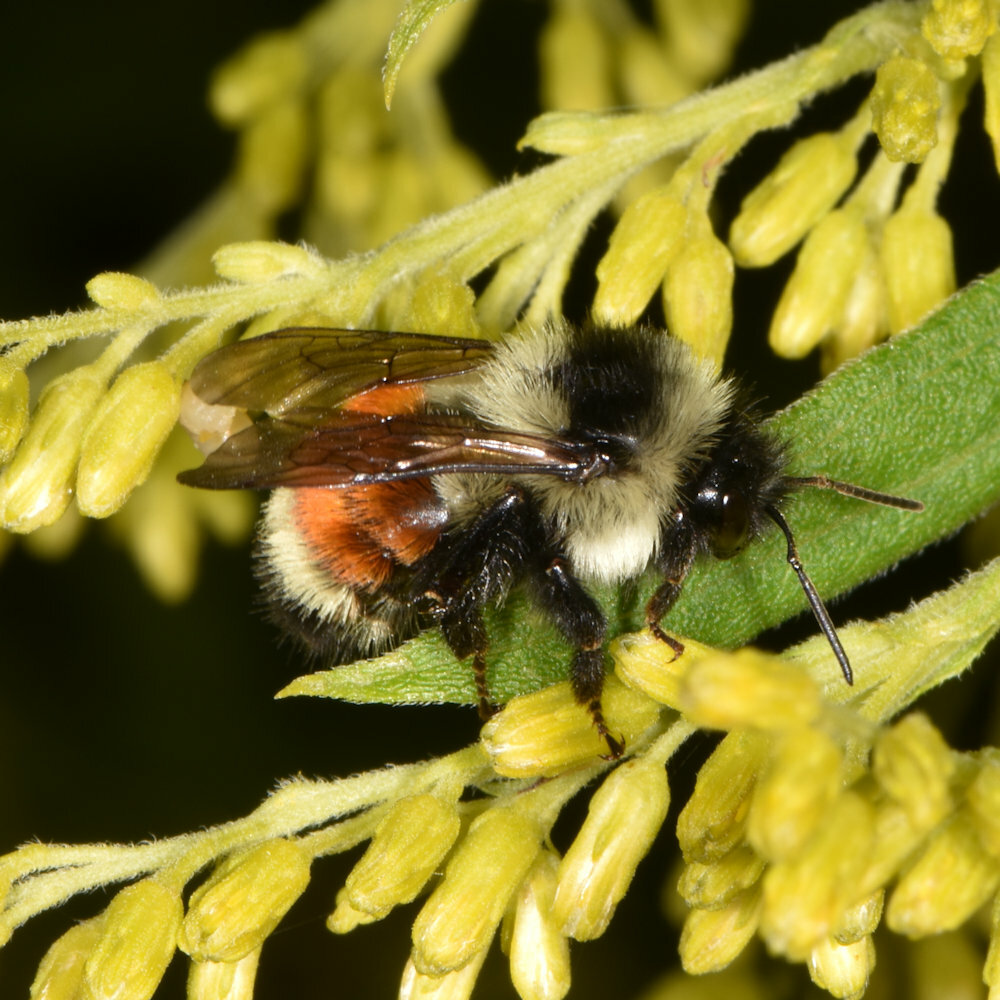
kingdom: Animalia
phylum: Arthropoda
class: Insecta
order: Hymenoptera
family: Apidae
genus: Bombus
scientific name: Bombus ternarius
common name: Tri-colored bumble bee
